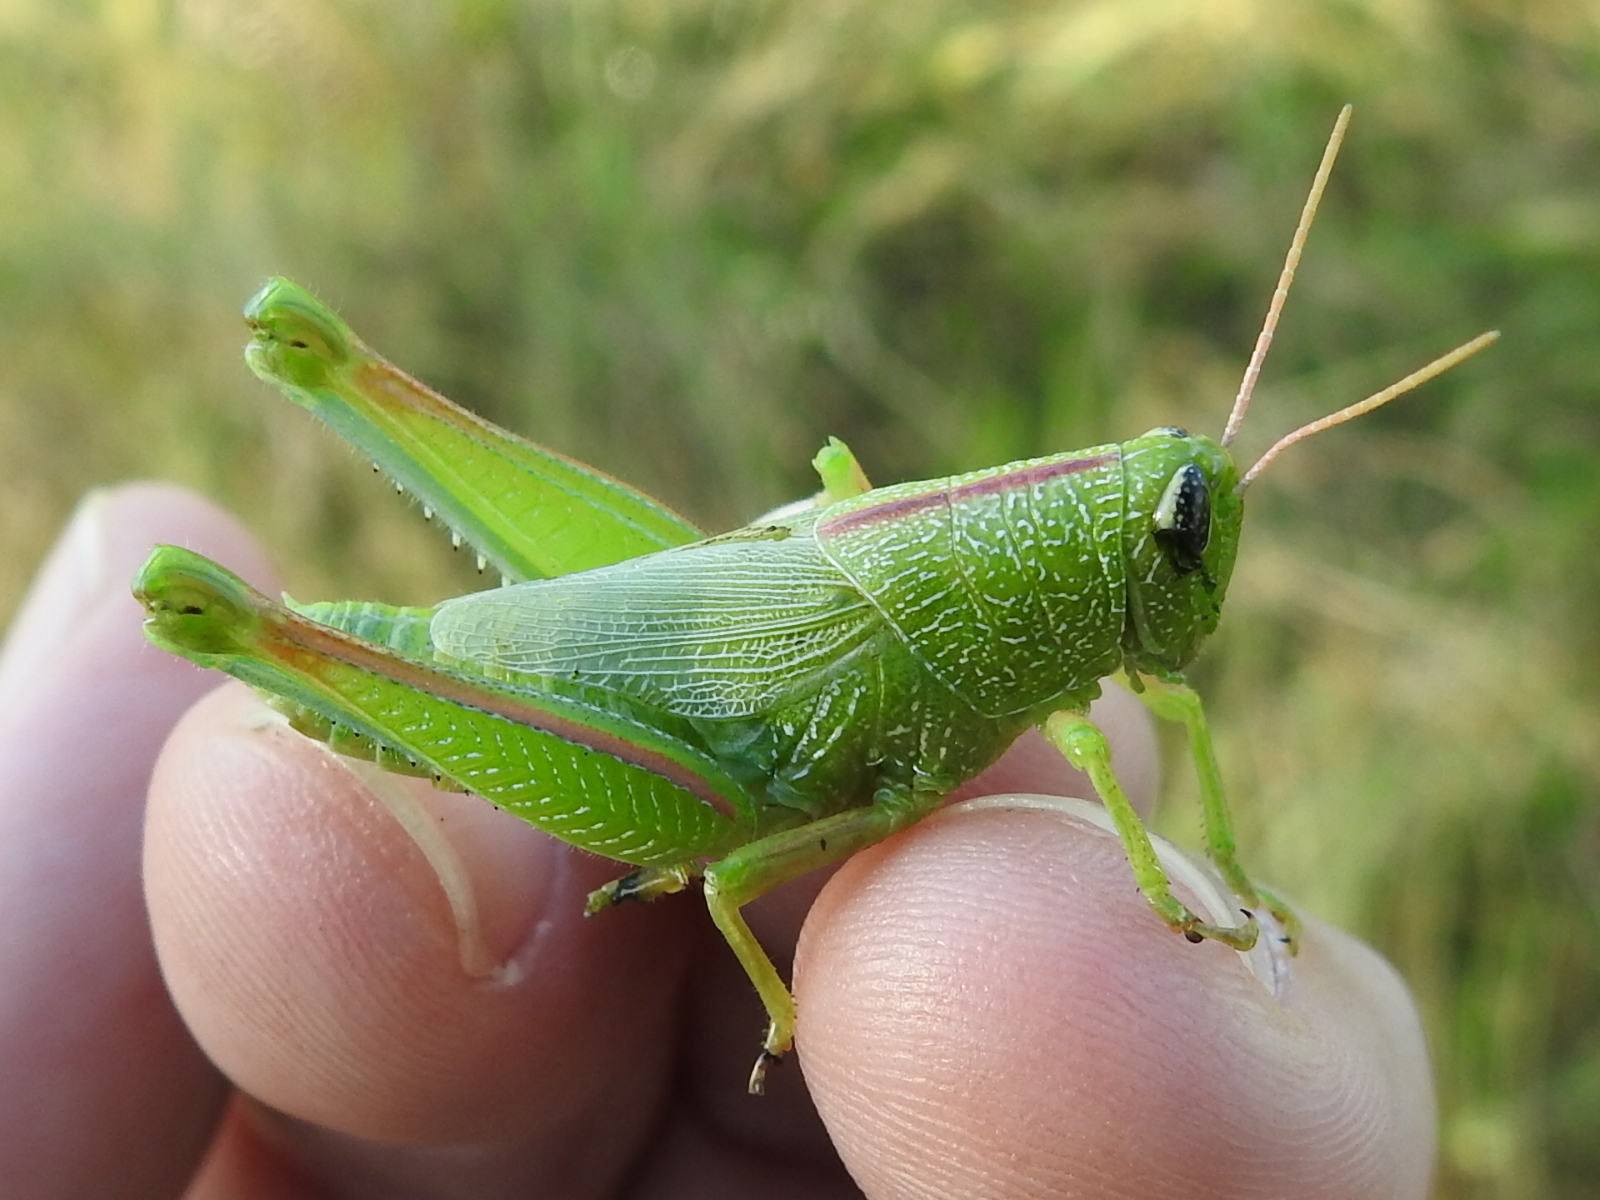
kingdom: Animalia
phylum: Arthropoda
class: Insecta
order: Orthoptera
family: Acrididae
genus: Hesperotettix
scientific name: Hesperotettix speciosus
